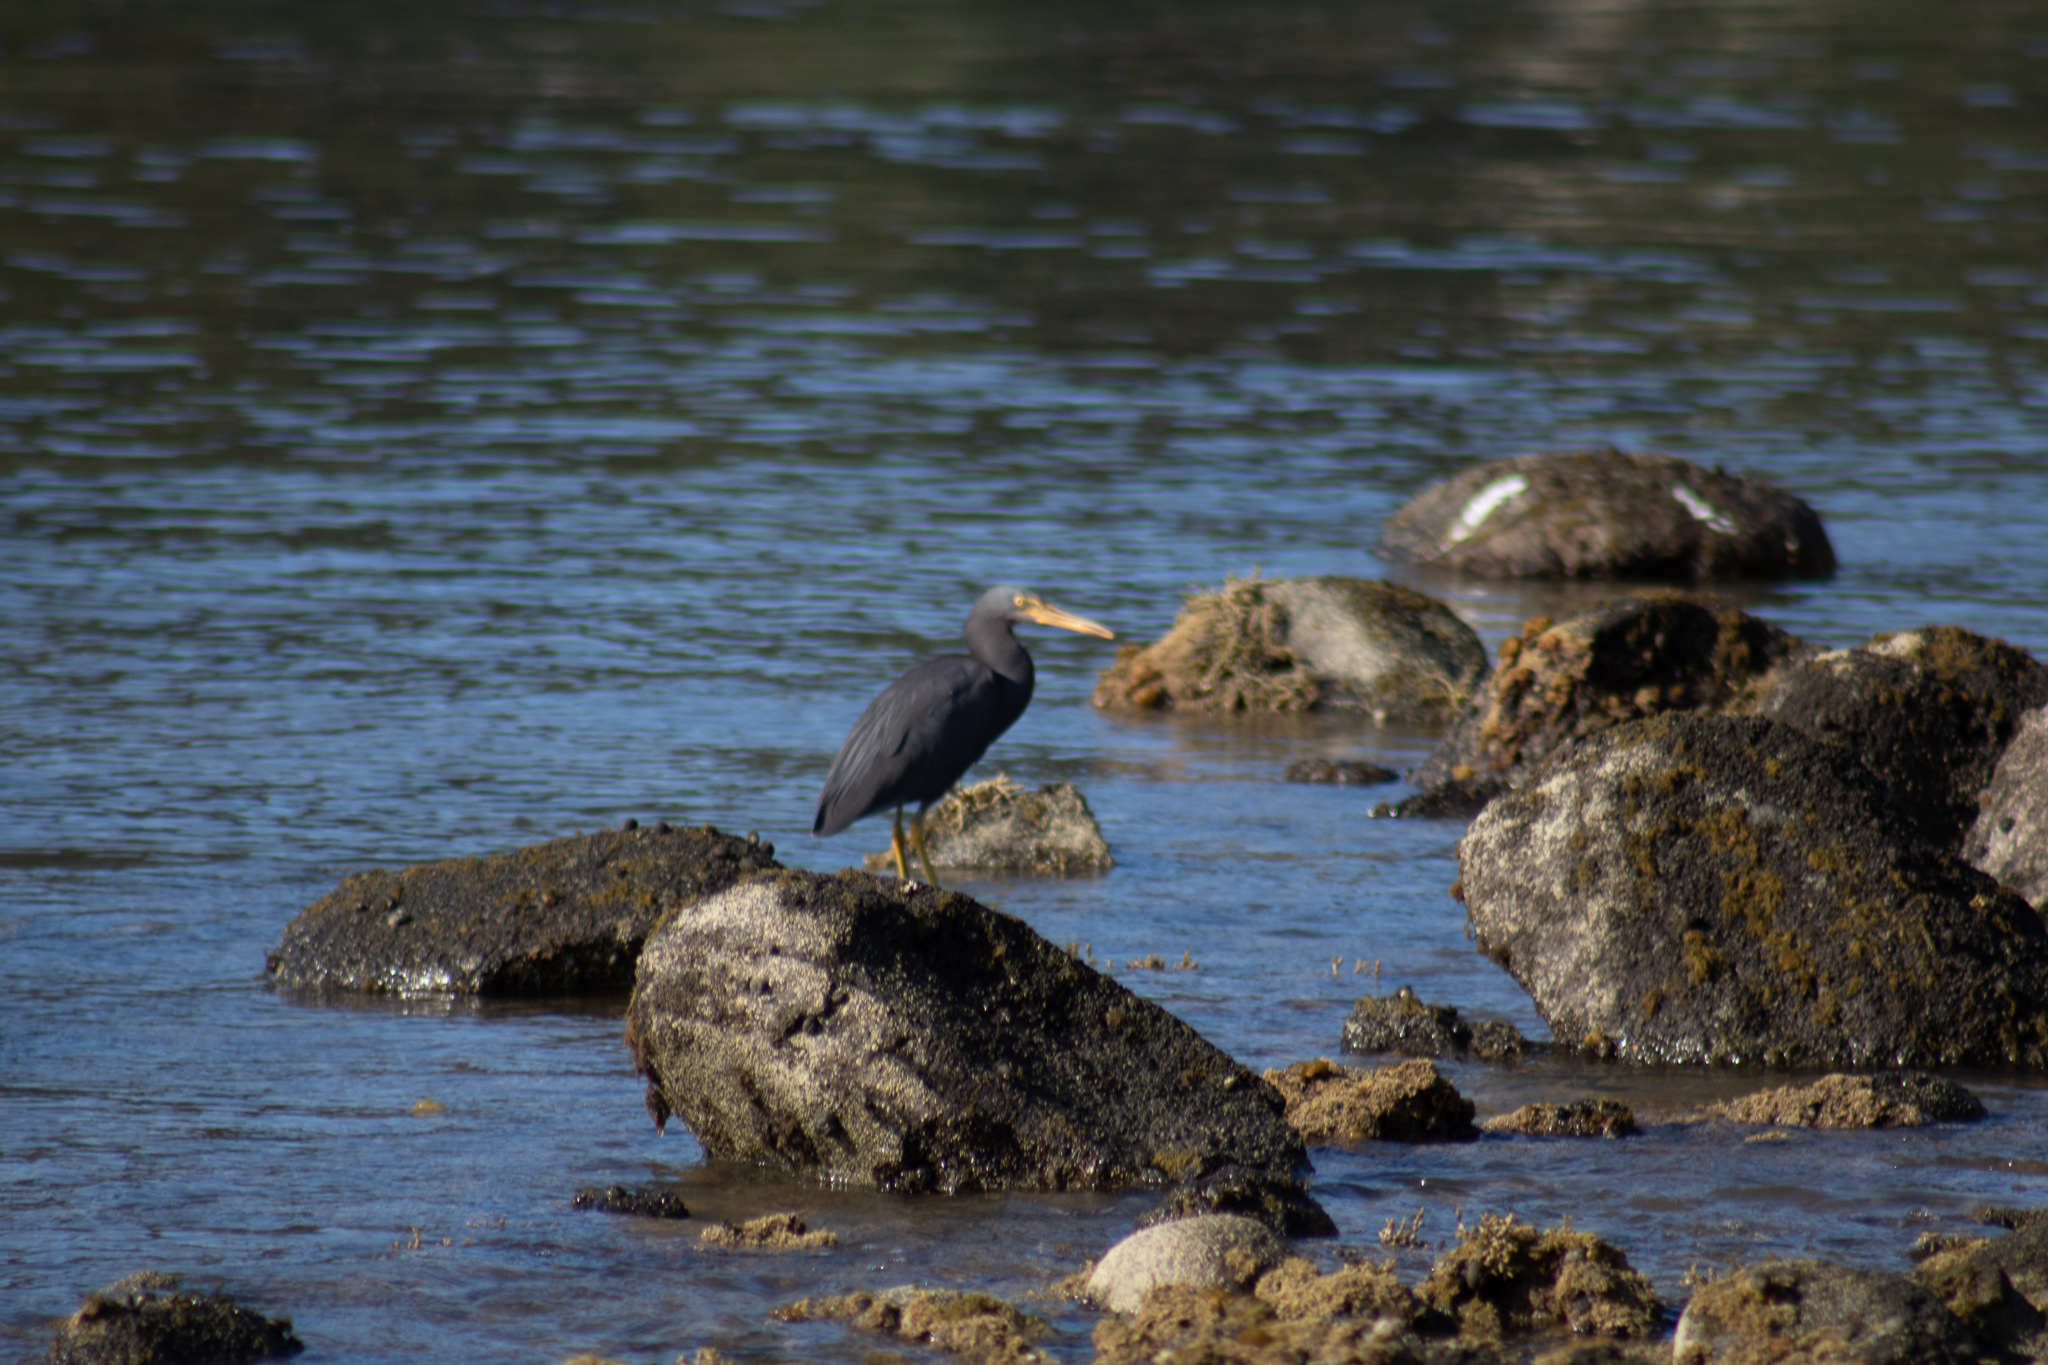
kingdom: Animalia
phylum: Chordata
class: Aves
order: Pelecaniformes
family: Ardeidae
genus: Egretta
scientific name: Egretta sacra
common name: Pacific reef heron
